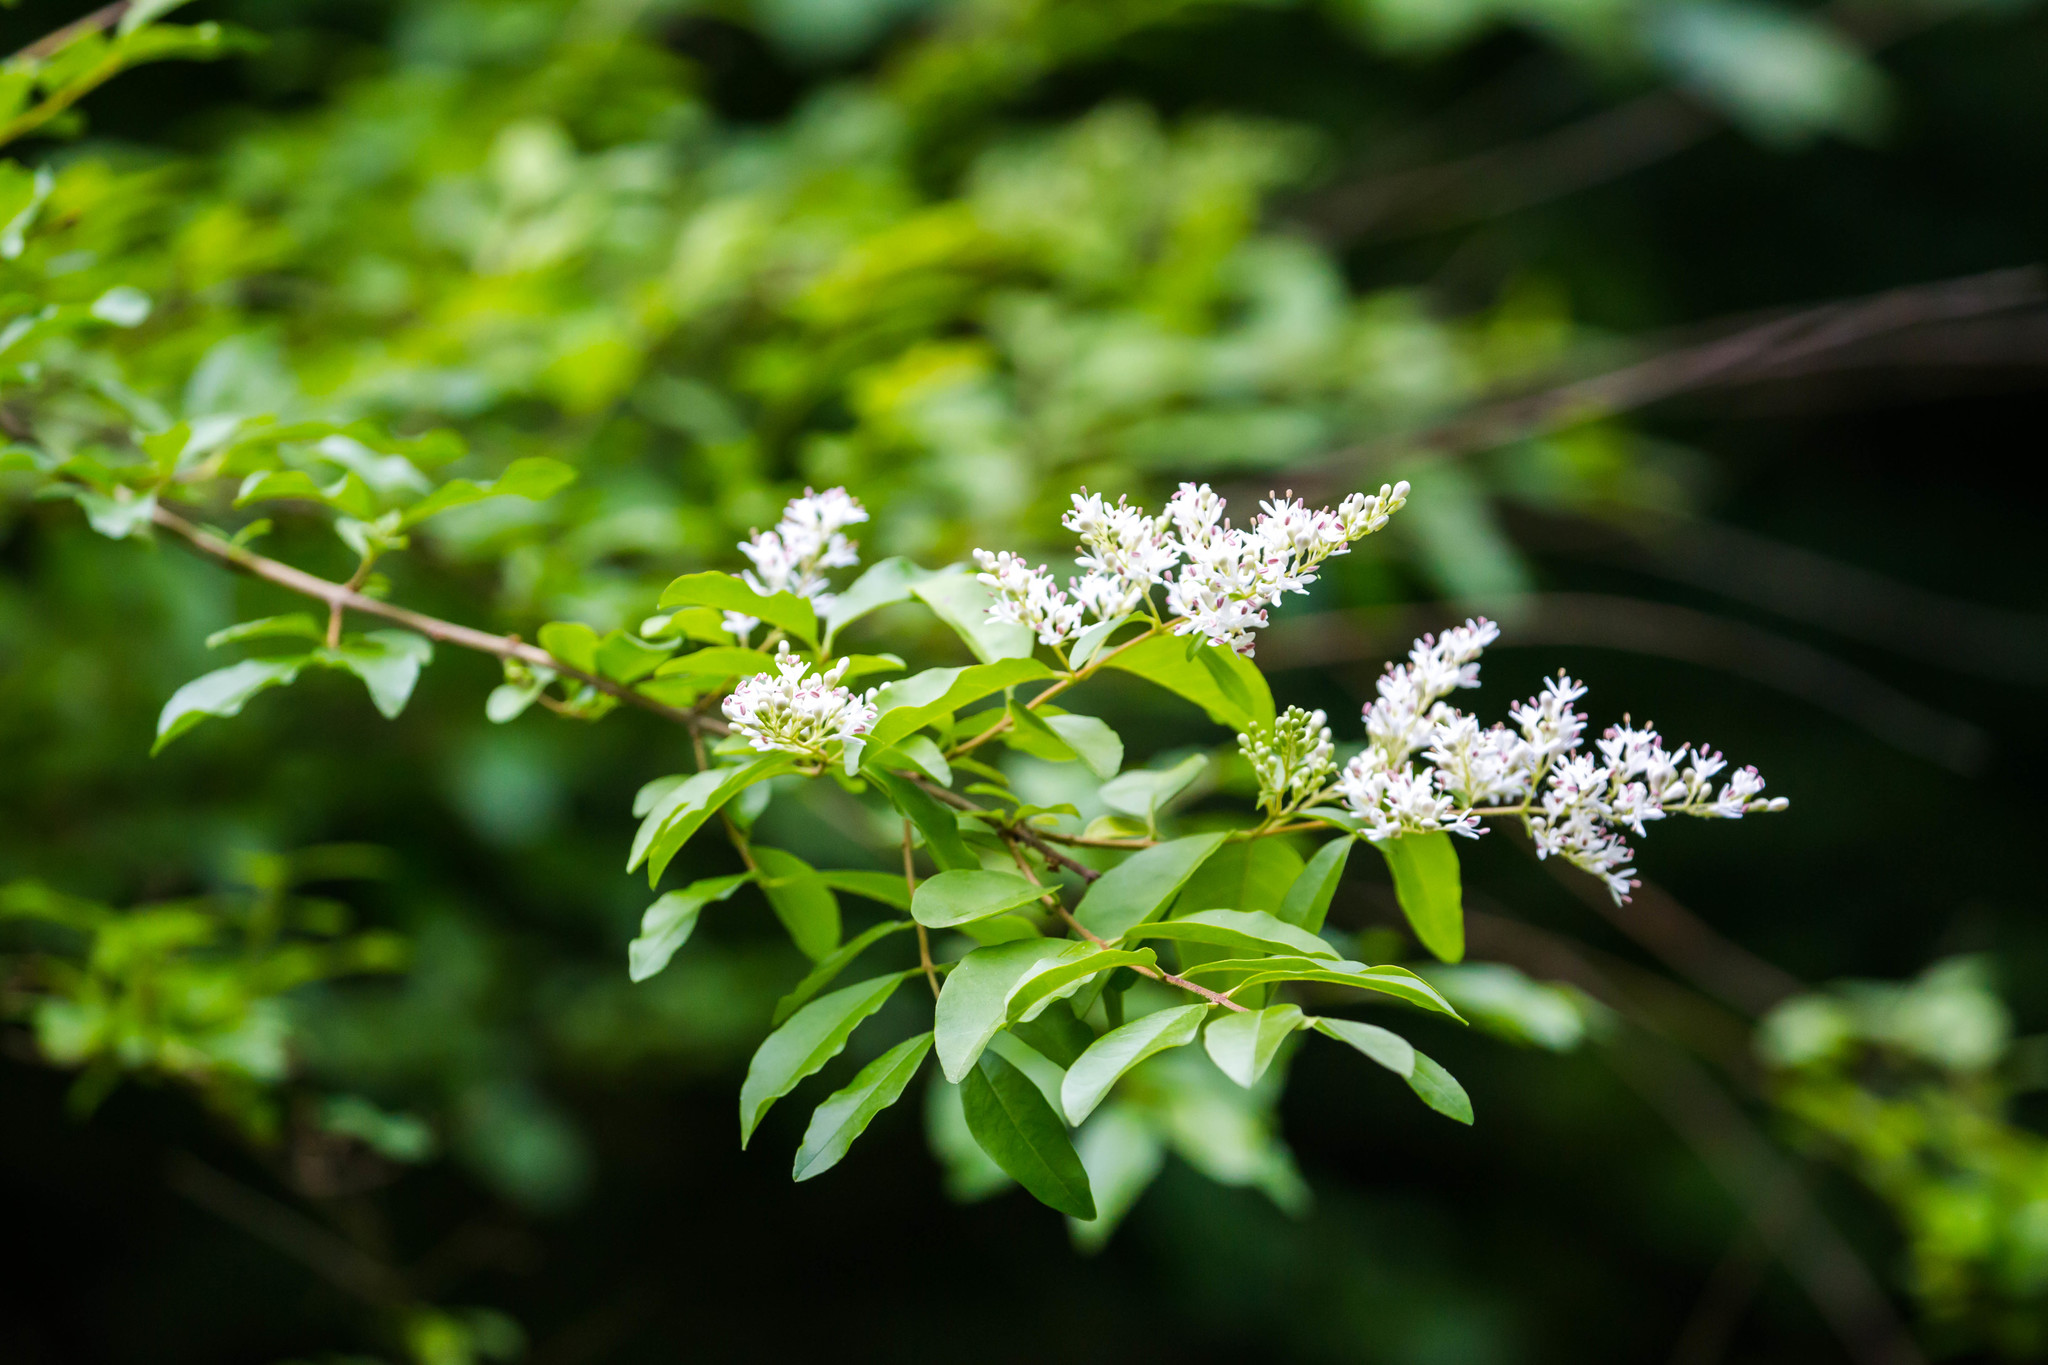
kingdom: Plantae
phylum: Tracheophyta
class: Magnoliopsida
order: Lamiales
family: Oleaceae
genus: Ligustrum
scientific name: Ligustrum sinense
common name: Chinese privet
